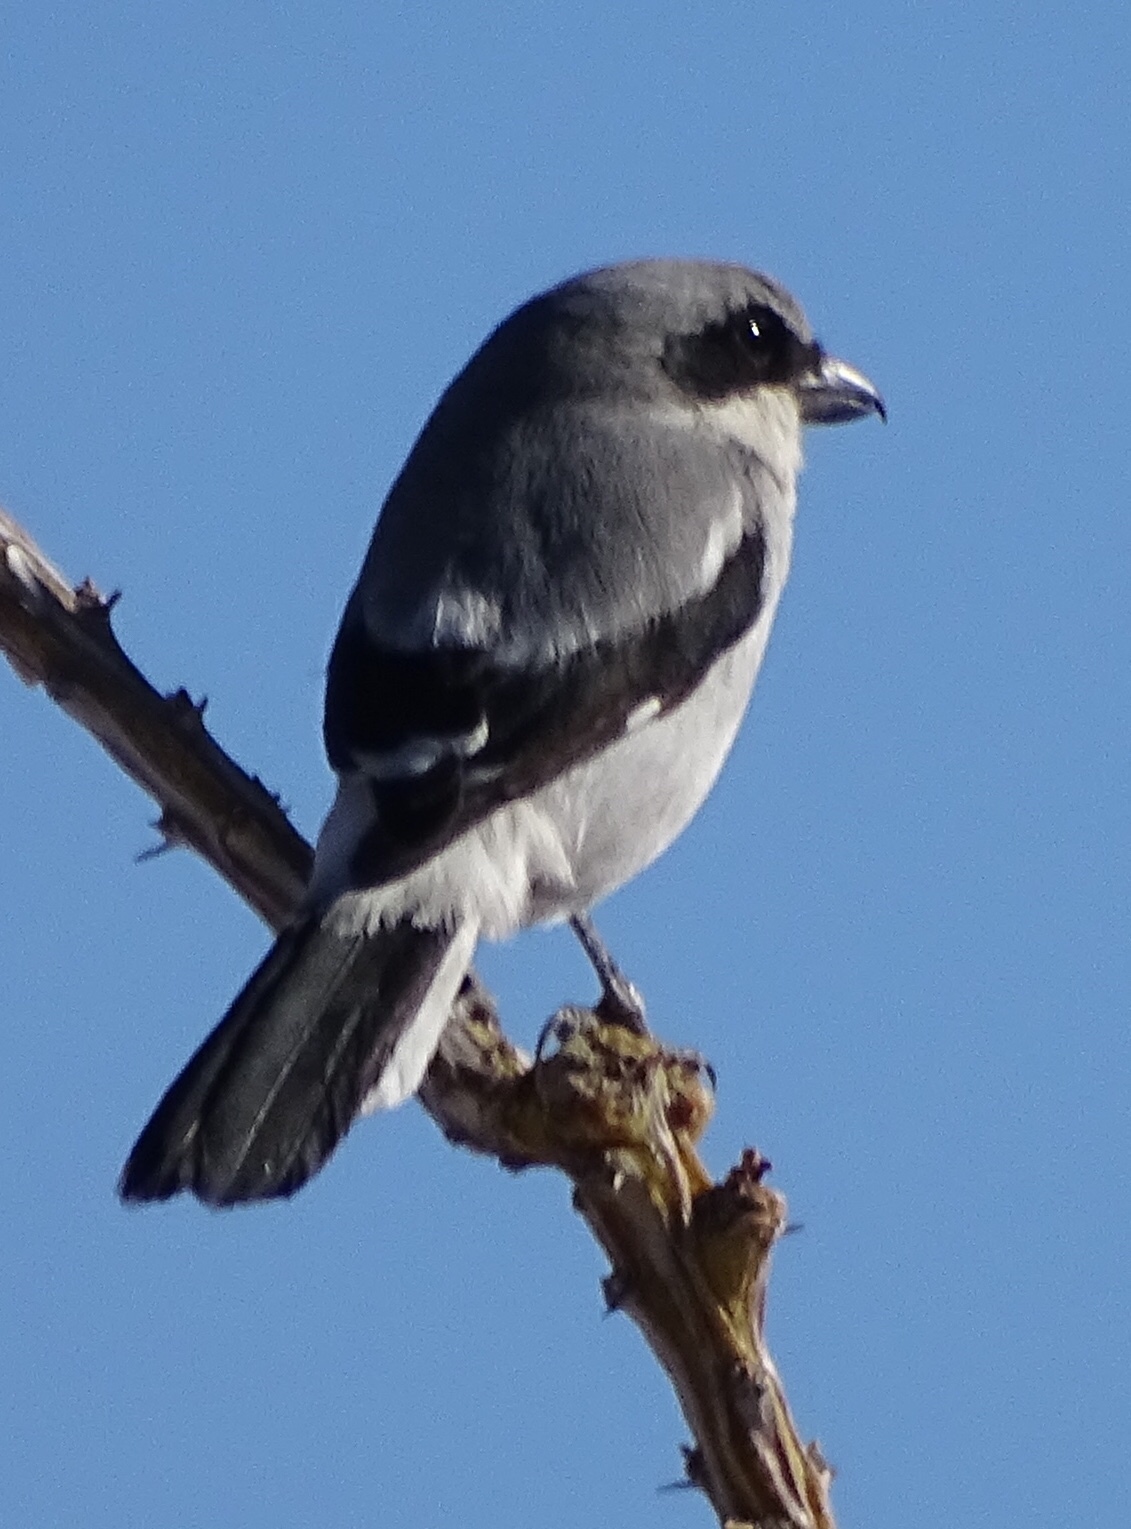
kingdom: Animalia
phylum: Chordata
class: Aves
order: Passeriformes
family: Laniidae
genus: Lanius
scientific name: Lanius ludovicianus
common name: Loggerhead shrike
